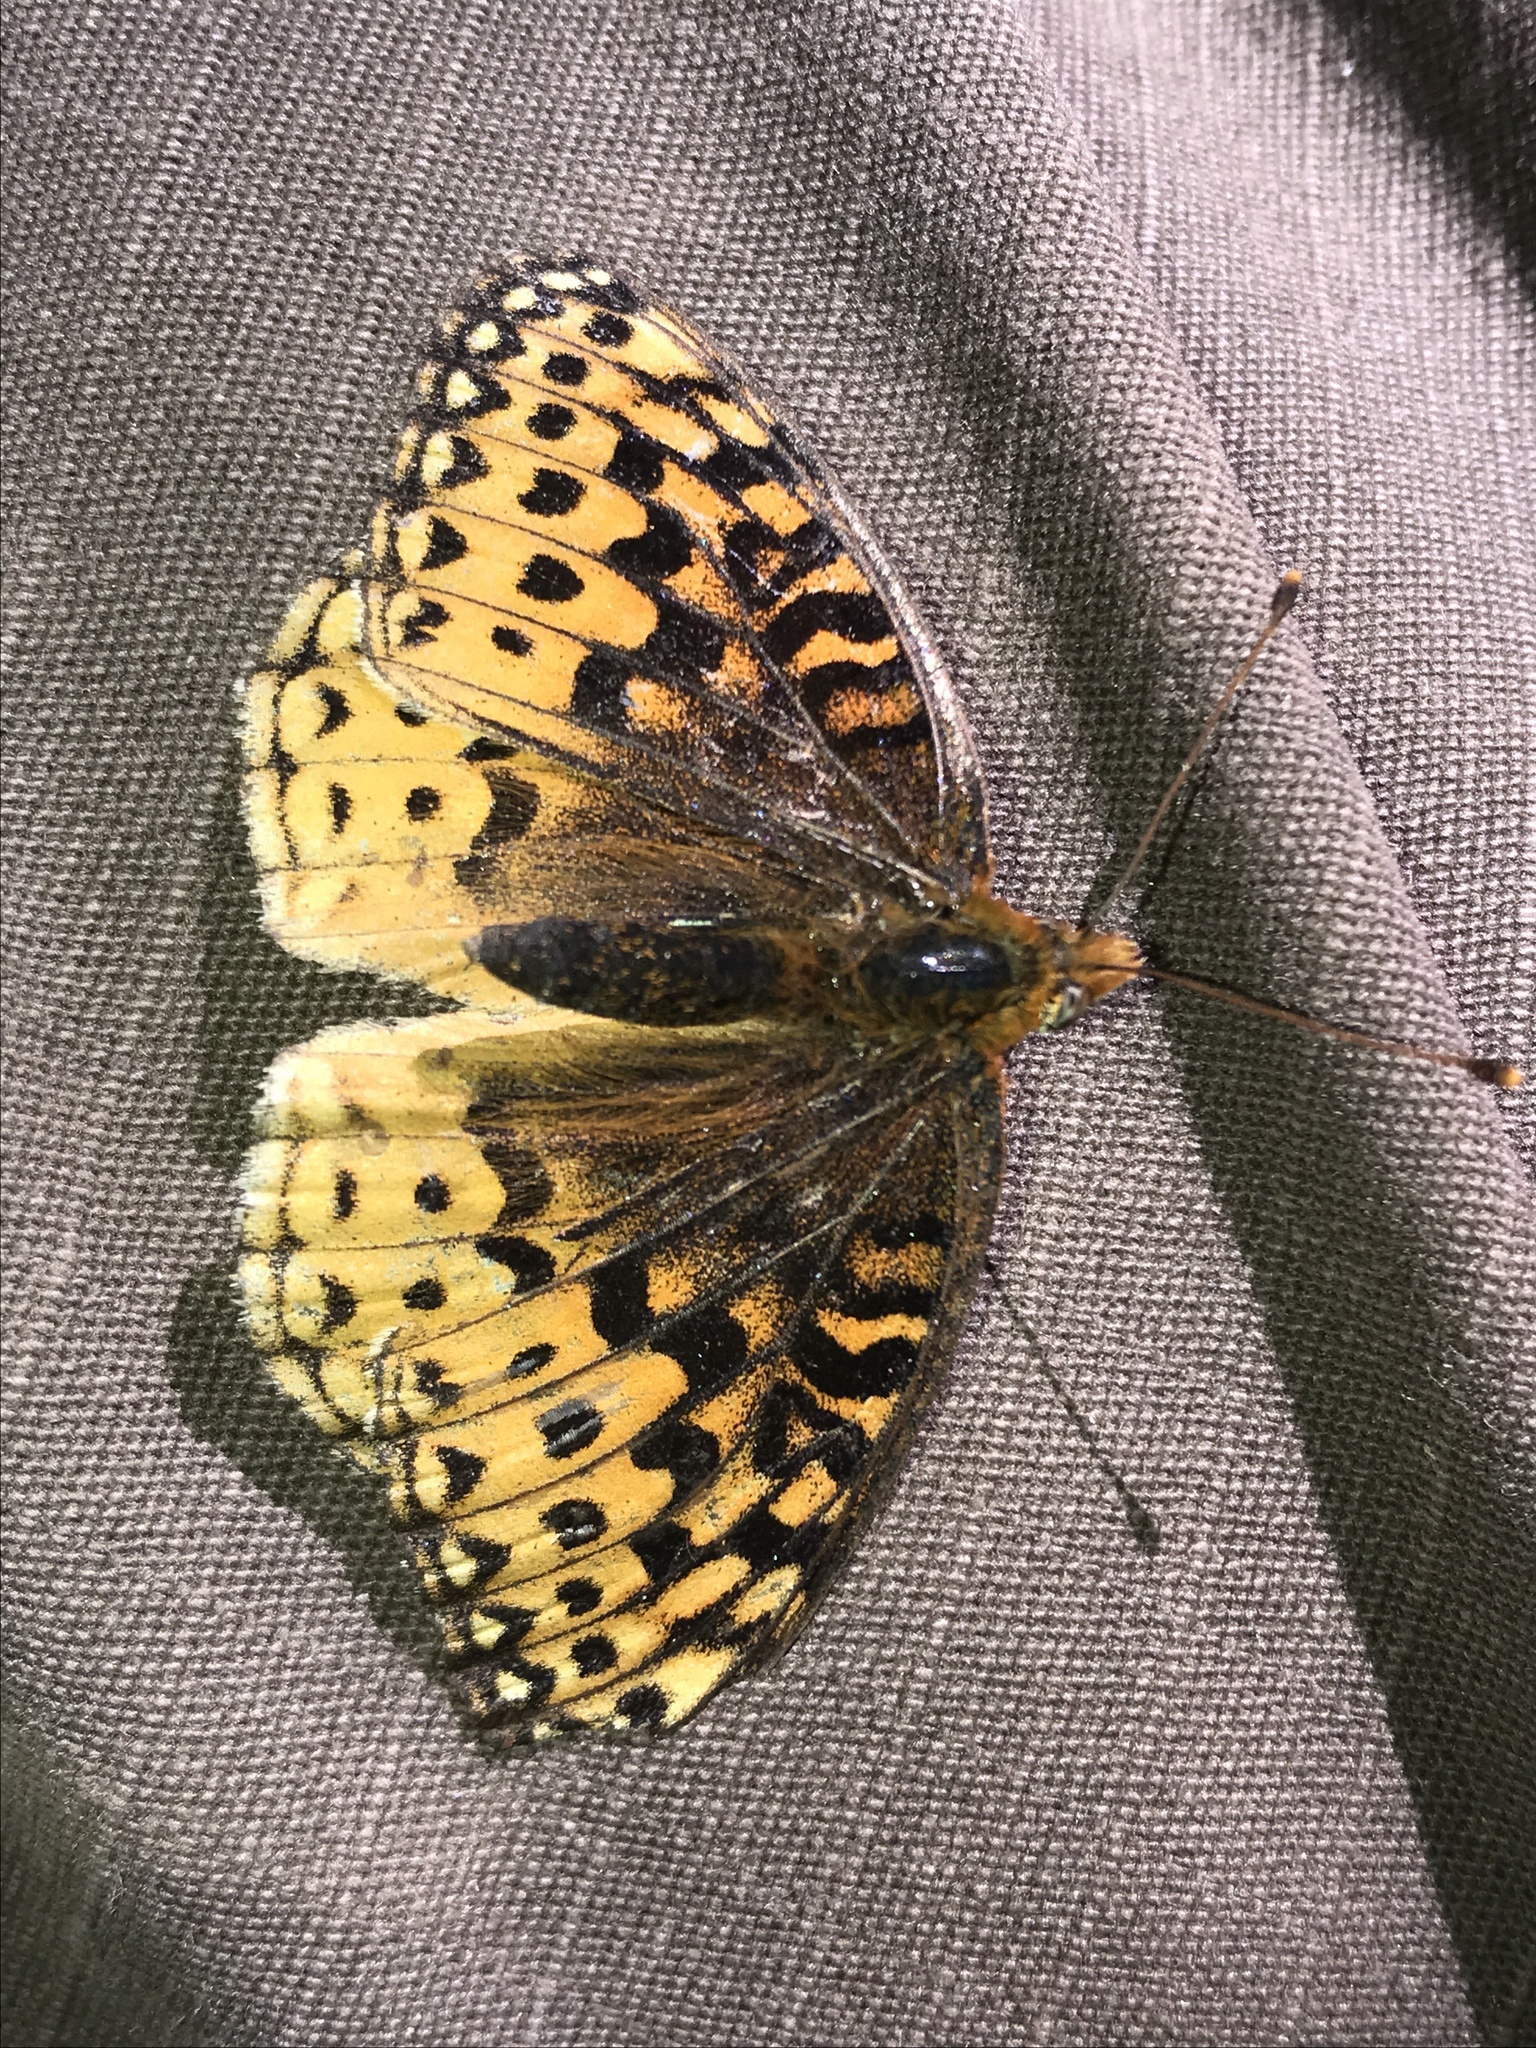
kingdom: Animalia
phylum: Arthropoda
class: Insecta
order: Lepidoptera
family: Nymphalidae
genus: Speyeria
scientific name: Speyeria atlantis
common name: Atlantis fritillary
